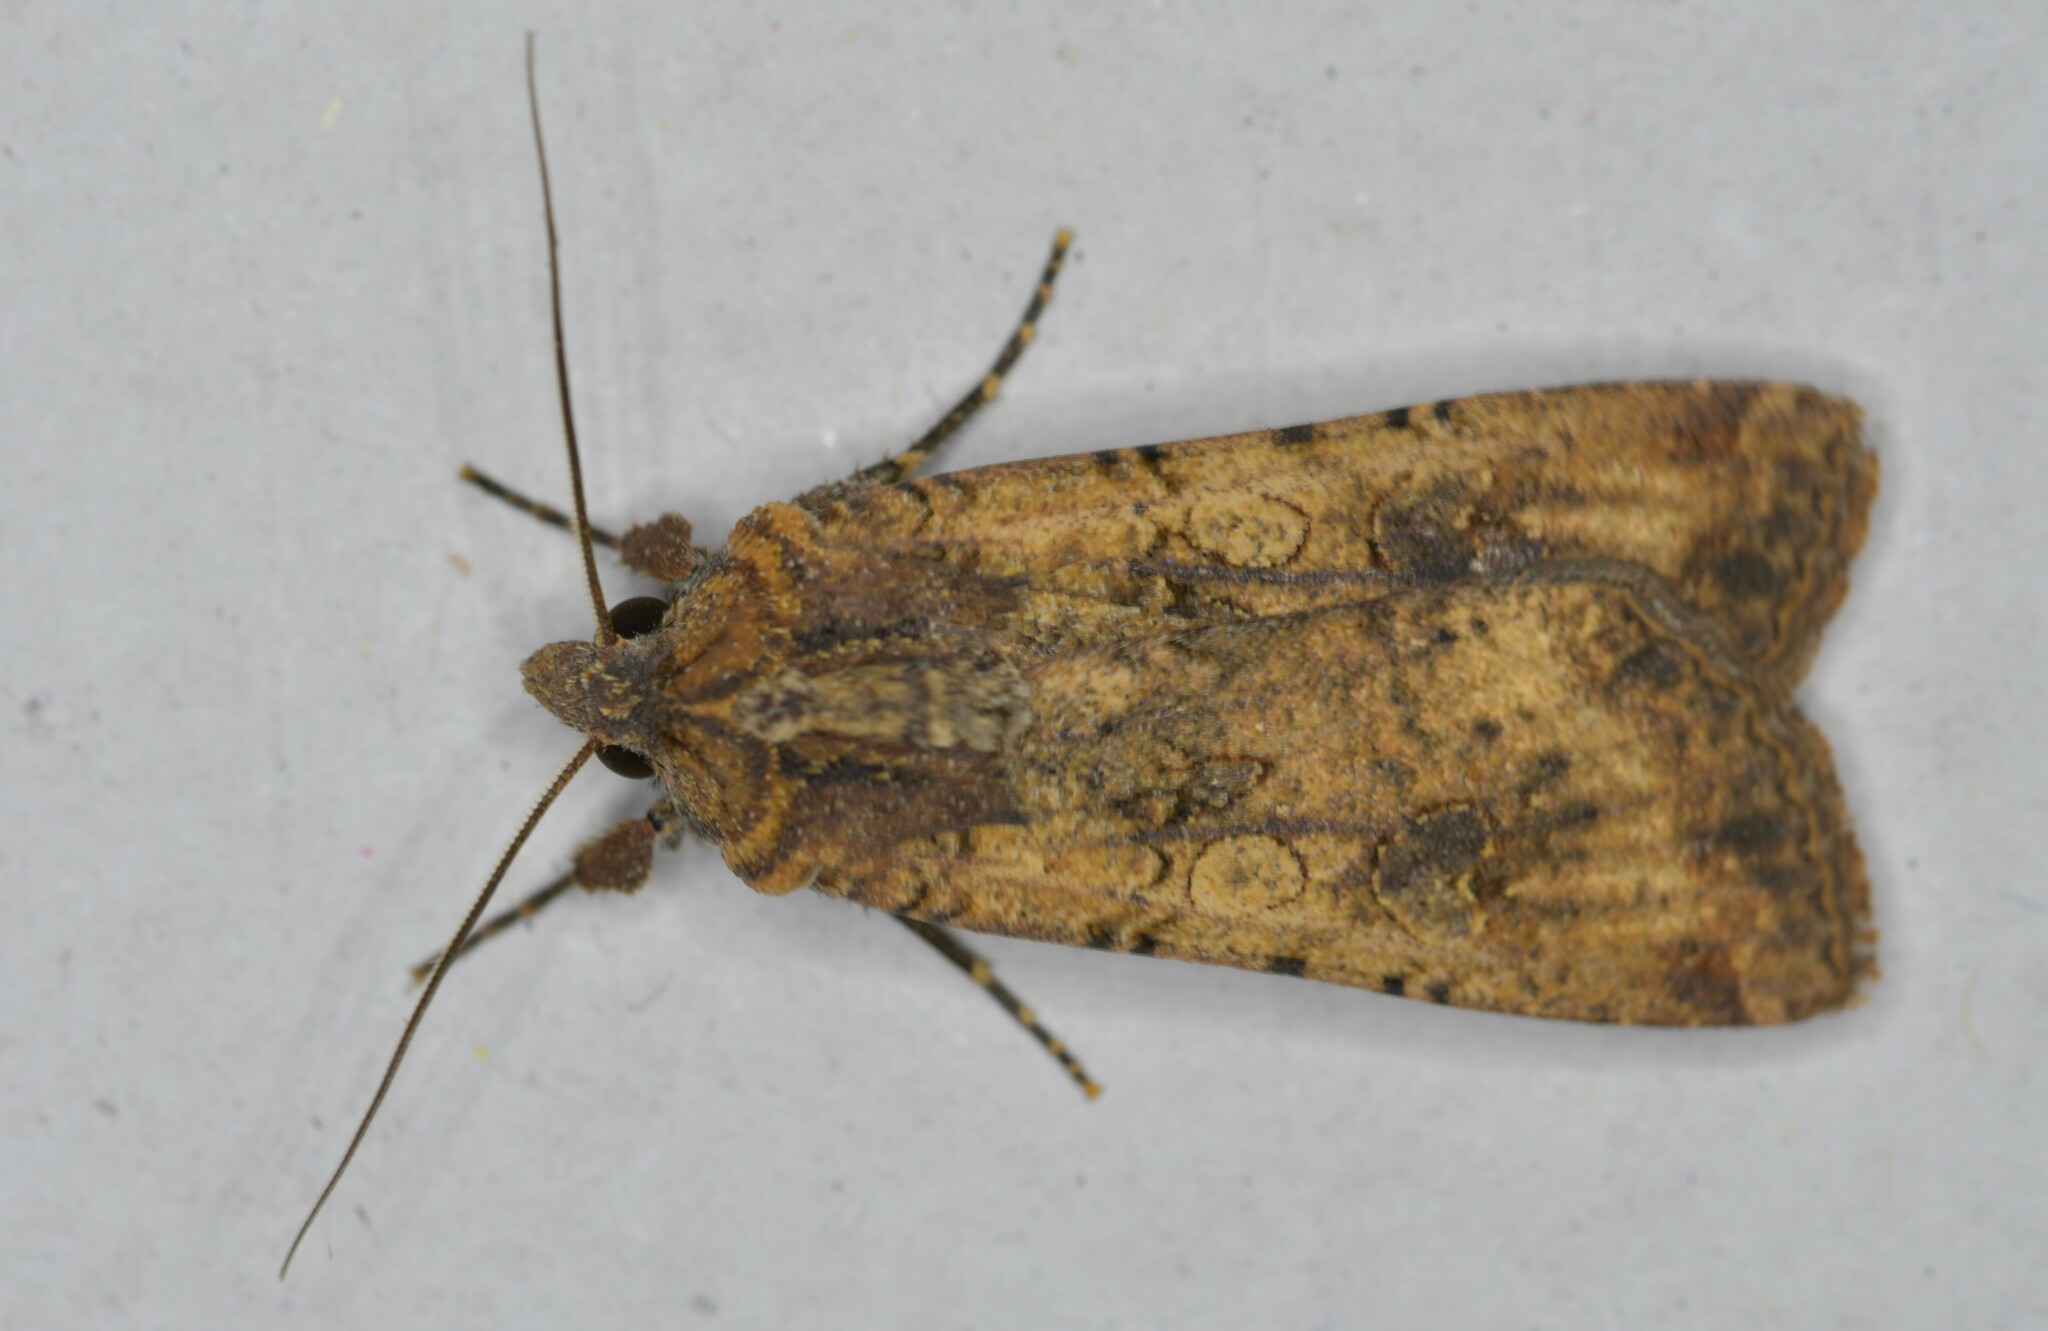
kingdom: Animalia
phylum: Arthropoda
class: Insecta
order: Lepidoptera
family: Noctuidae
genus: Peridroma
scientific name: Peridroma saucia
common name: Pearly underwing
